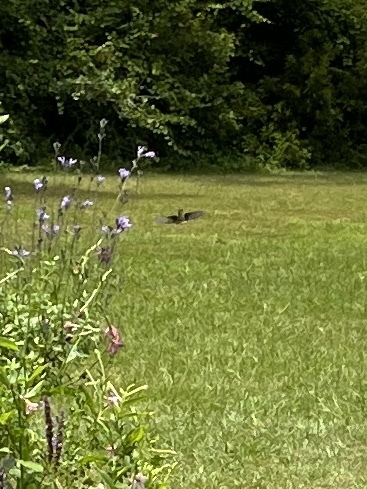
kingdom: Animalia
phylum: Chordata
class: Aves
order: Apodiformes
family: Trochilidae
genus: Archilochus
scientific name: Archilochus colubris
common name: Ruby-throated hummingbird
